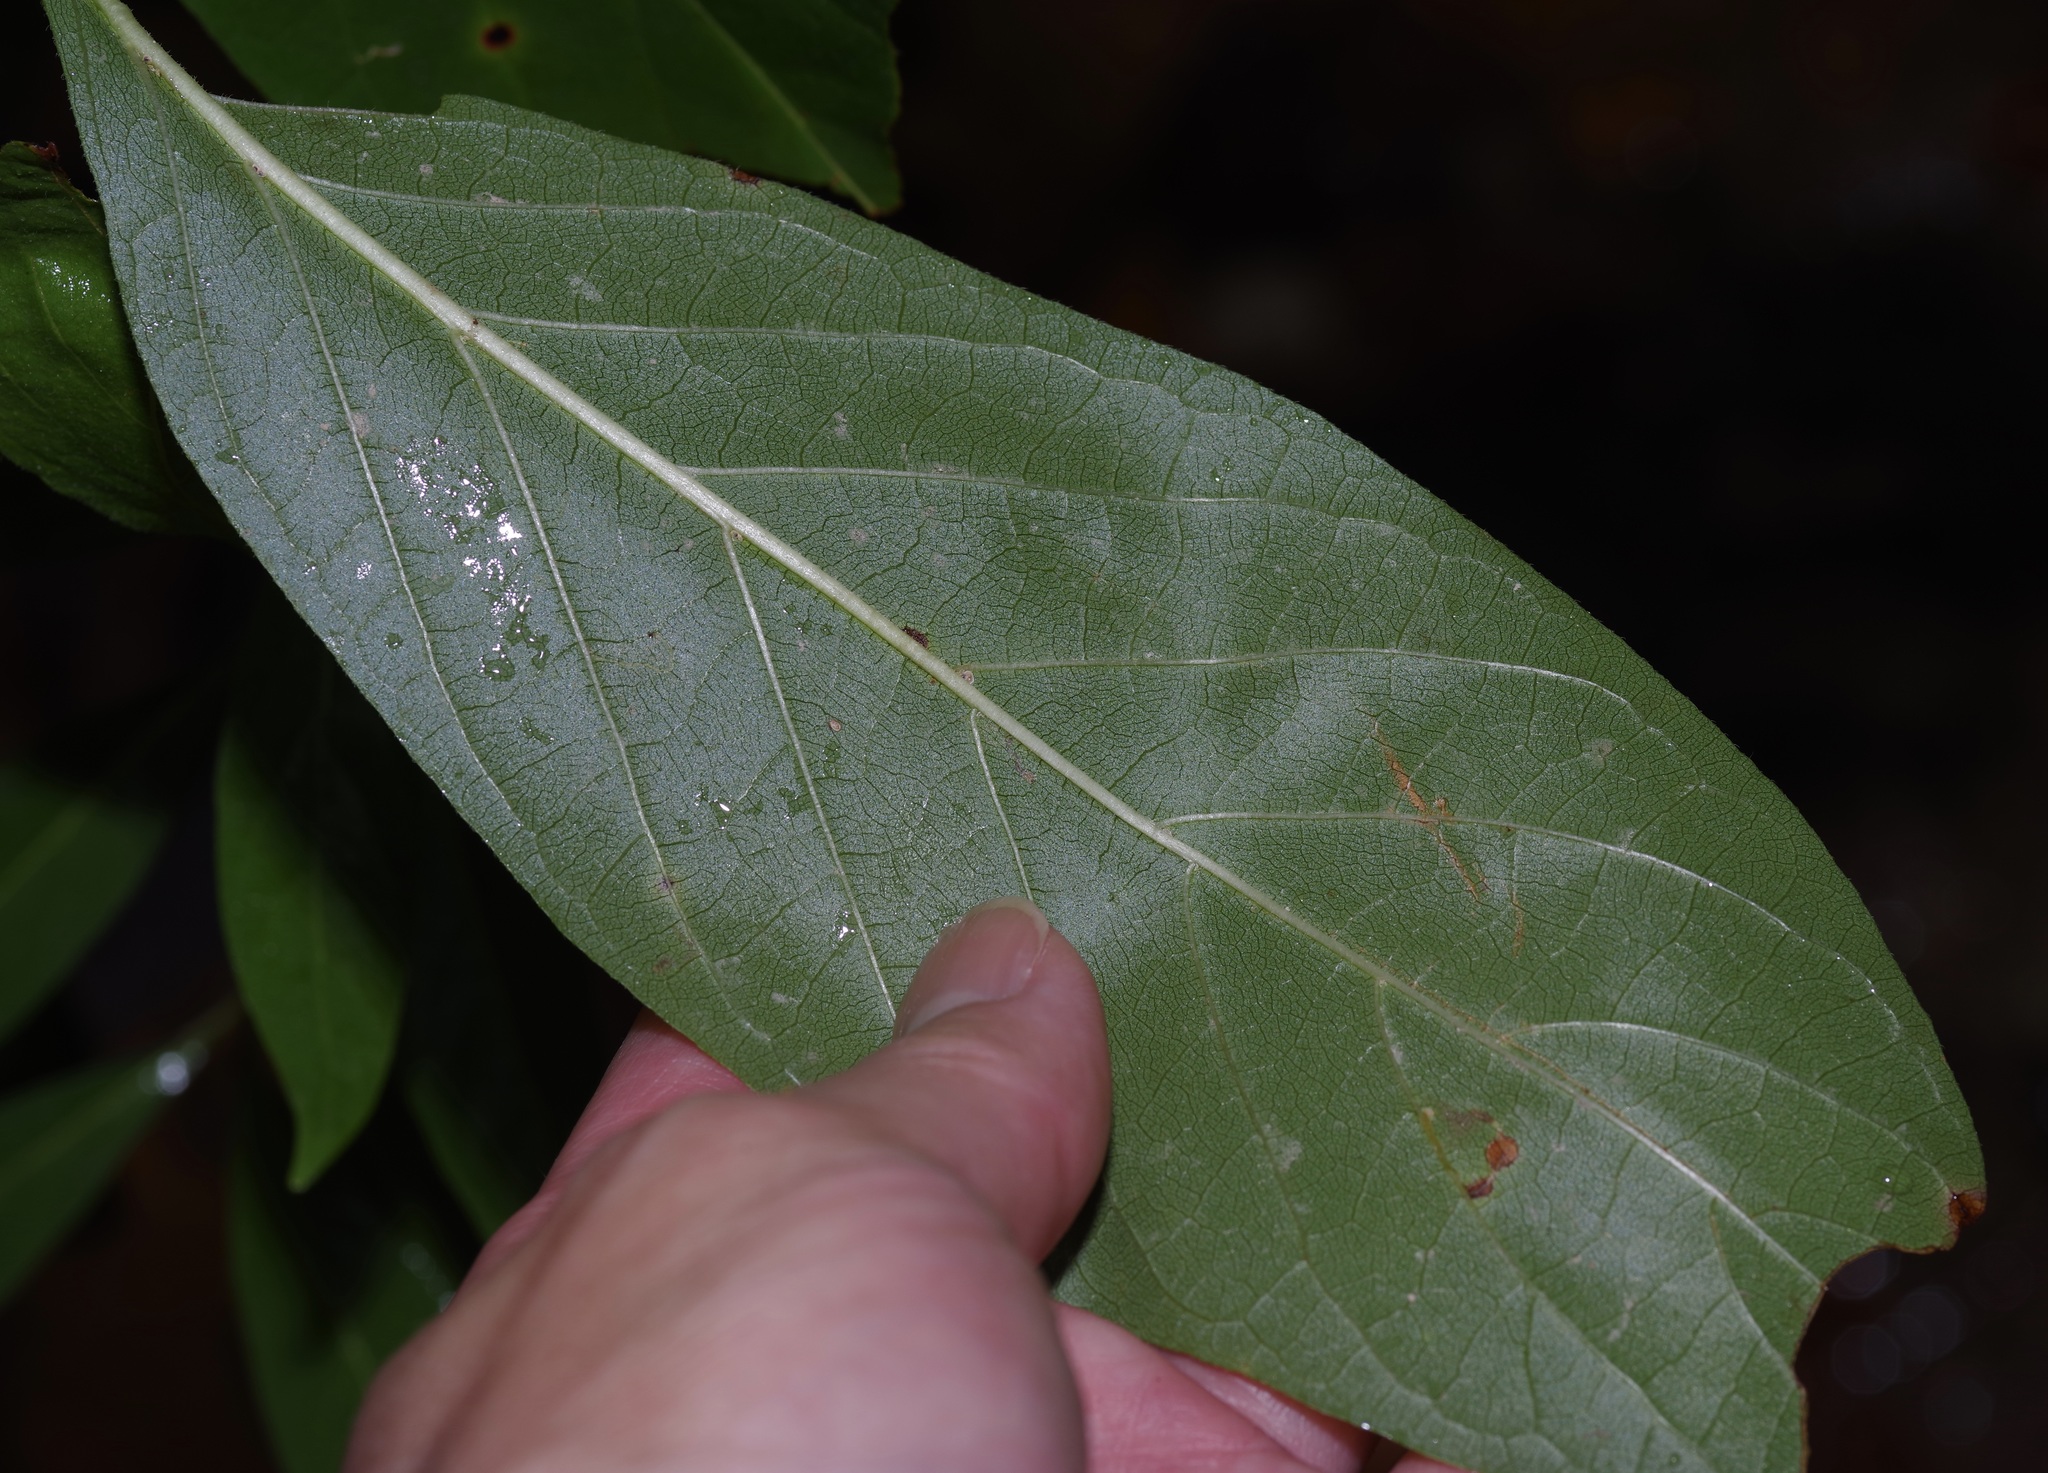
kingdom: Plantae
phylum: Tracheophyta
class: Magnoliopsida
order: Gentianales
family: Rubiaceae
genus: Cephalanthus
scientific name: Cephalanthus occidentalis
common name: Button-willow
